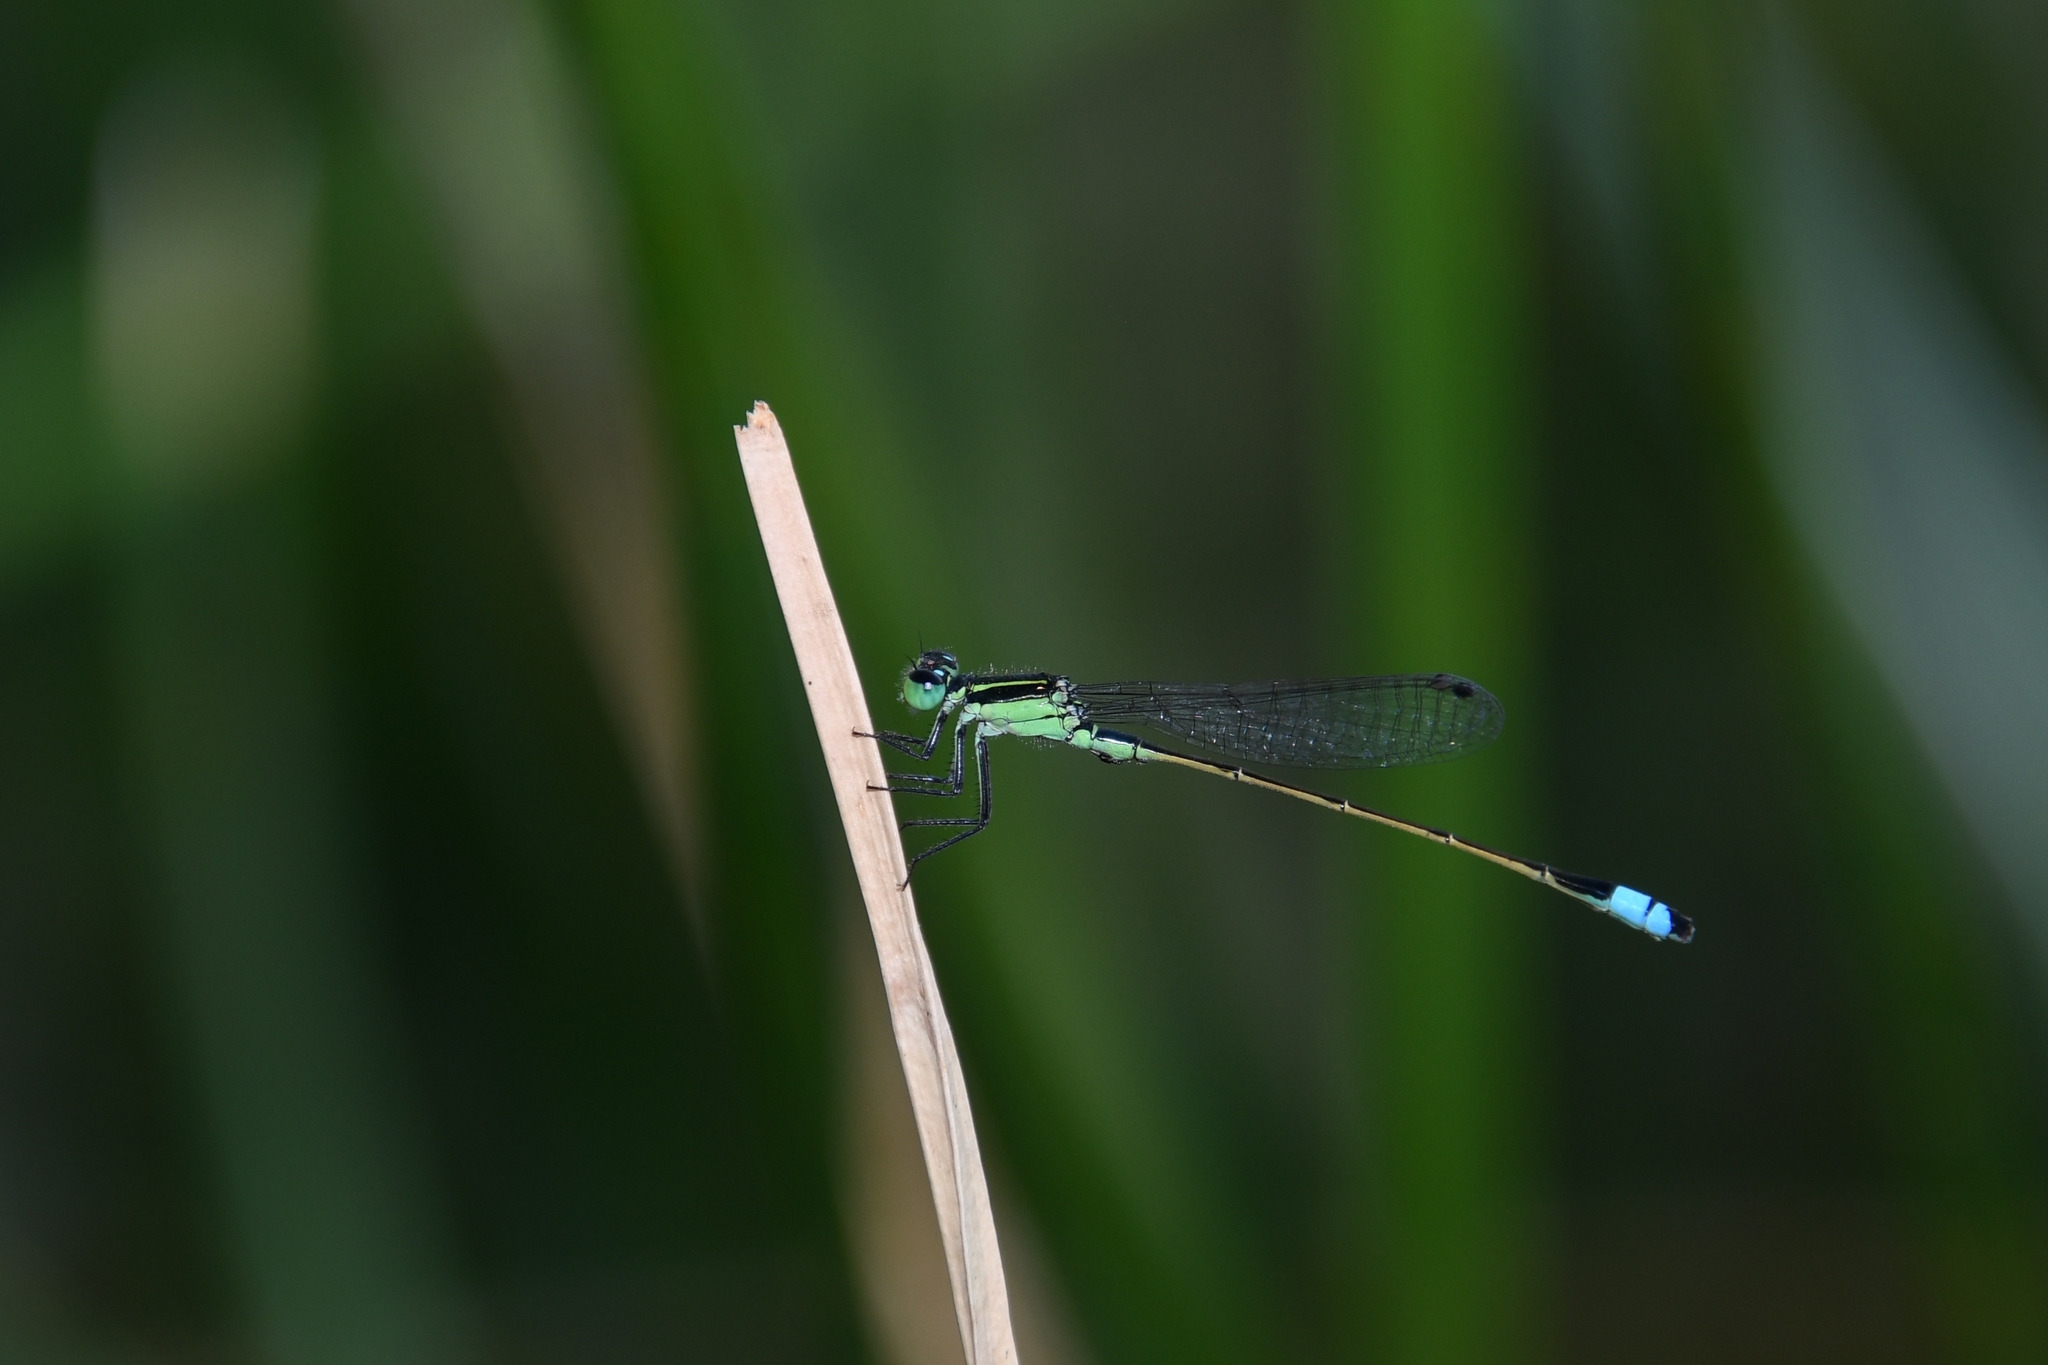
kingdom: Animalia
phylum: Arthropoda
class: Insecta
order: Odonata
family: Coenagrionidae
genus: Ischnura
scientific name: Ischnura ramburii
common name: Rambur's forktail
